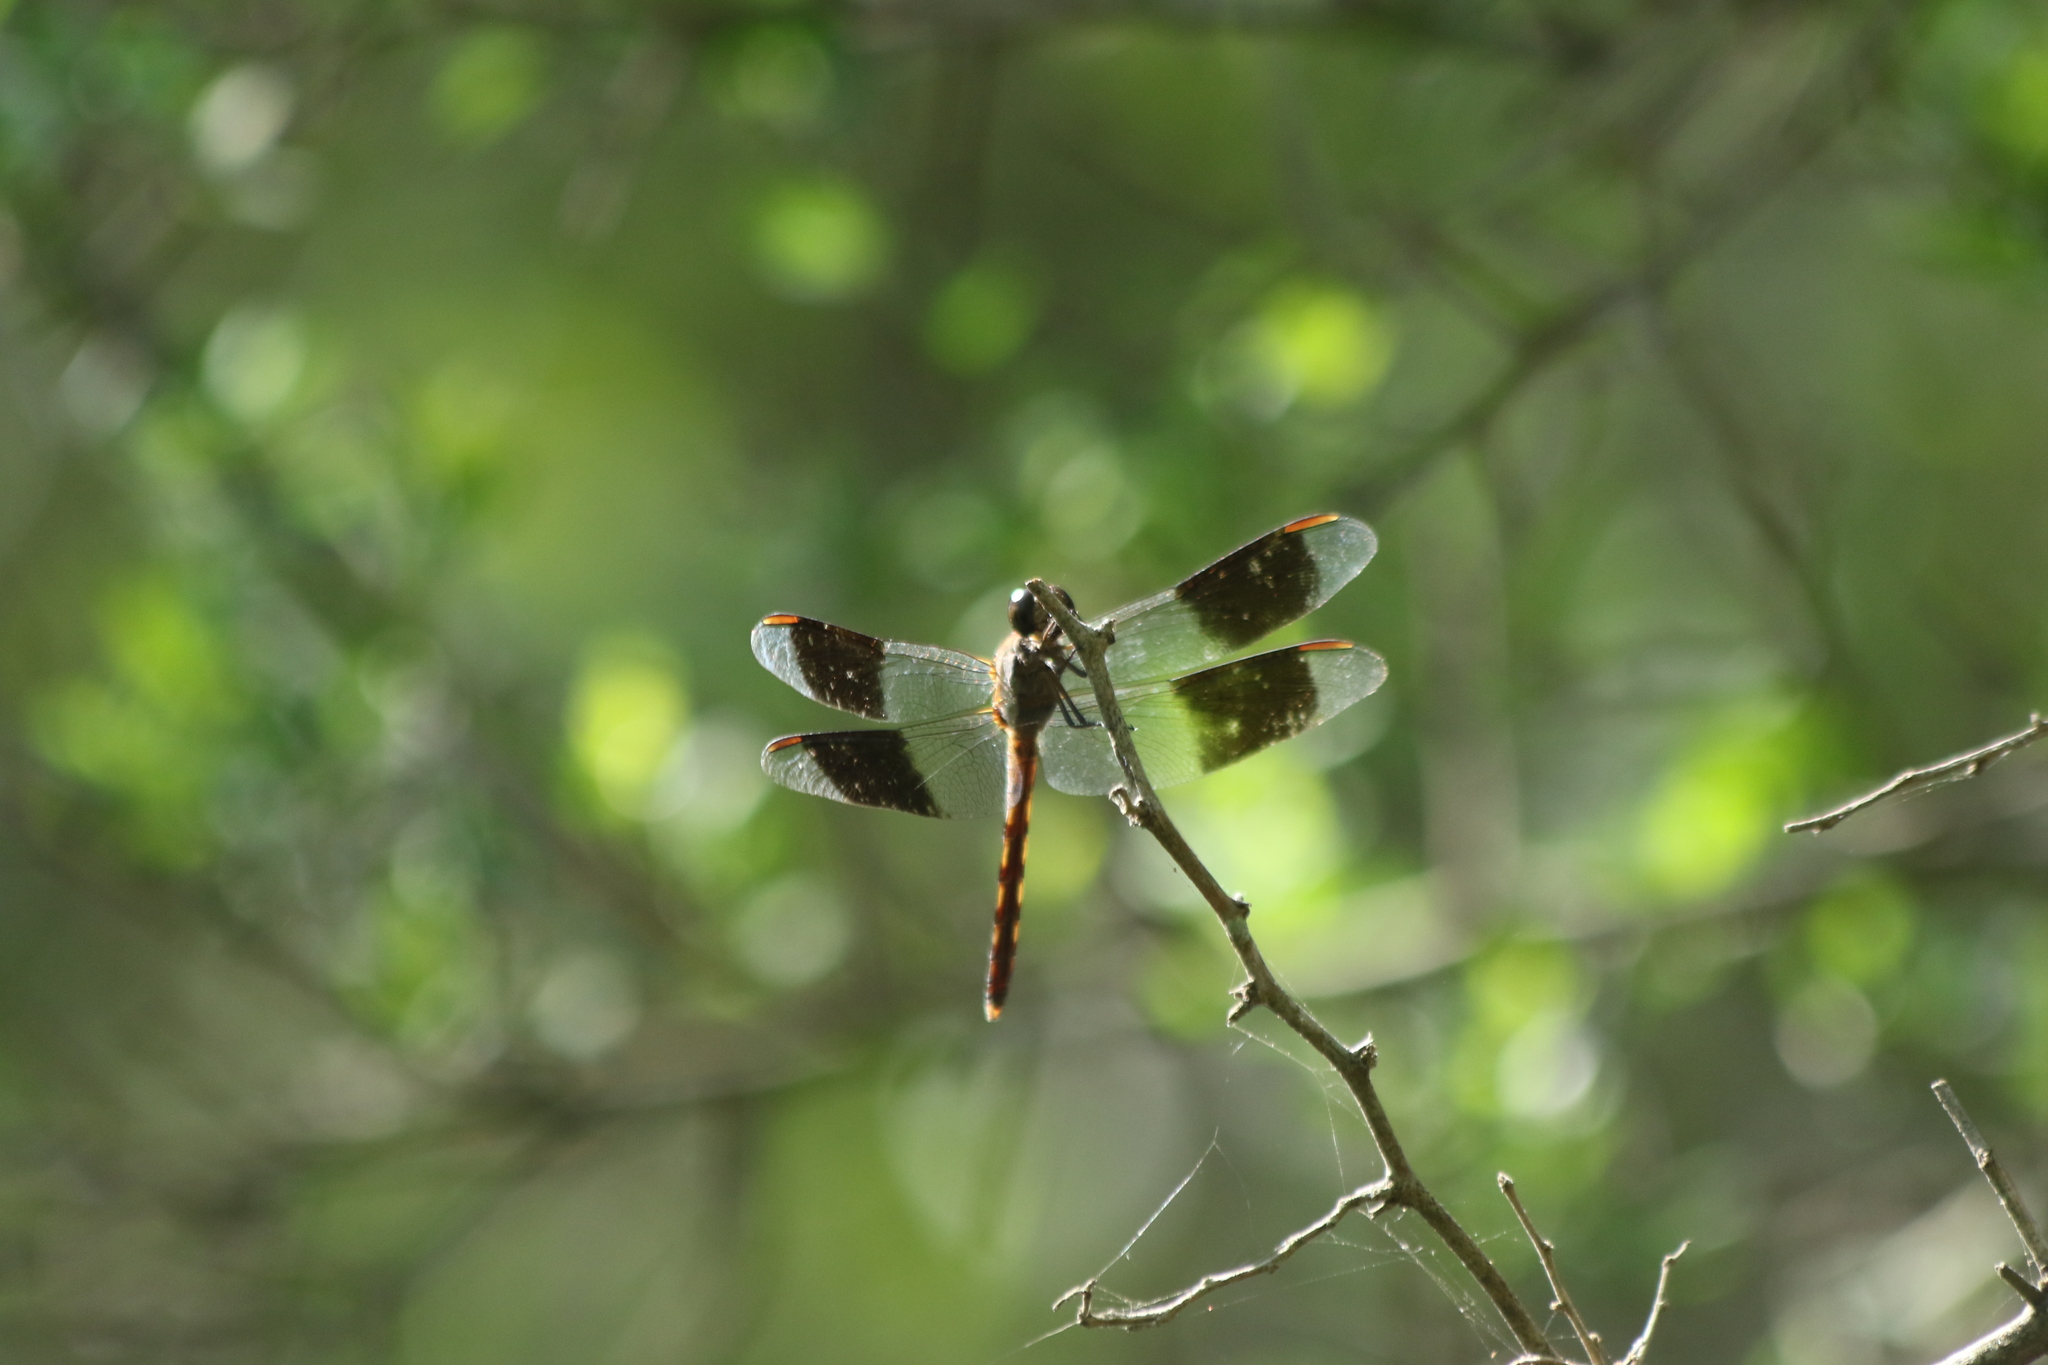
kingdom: Animalia
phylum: Arthropoda
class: Insecta
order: Odonata
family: Libellulidae
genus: Erythrodiplax
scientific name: Erythrodiplax umbrata
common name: Band-winged dragonlet
